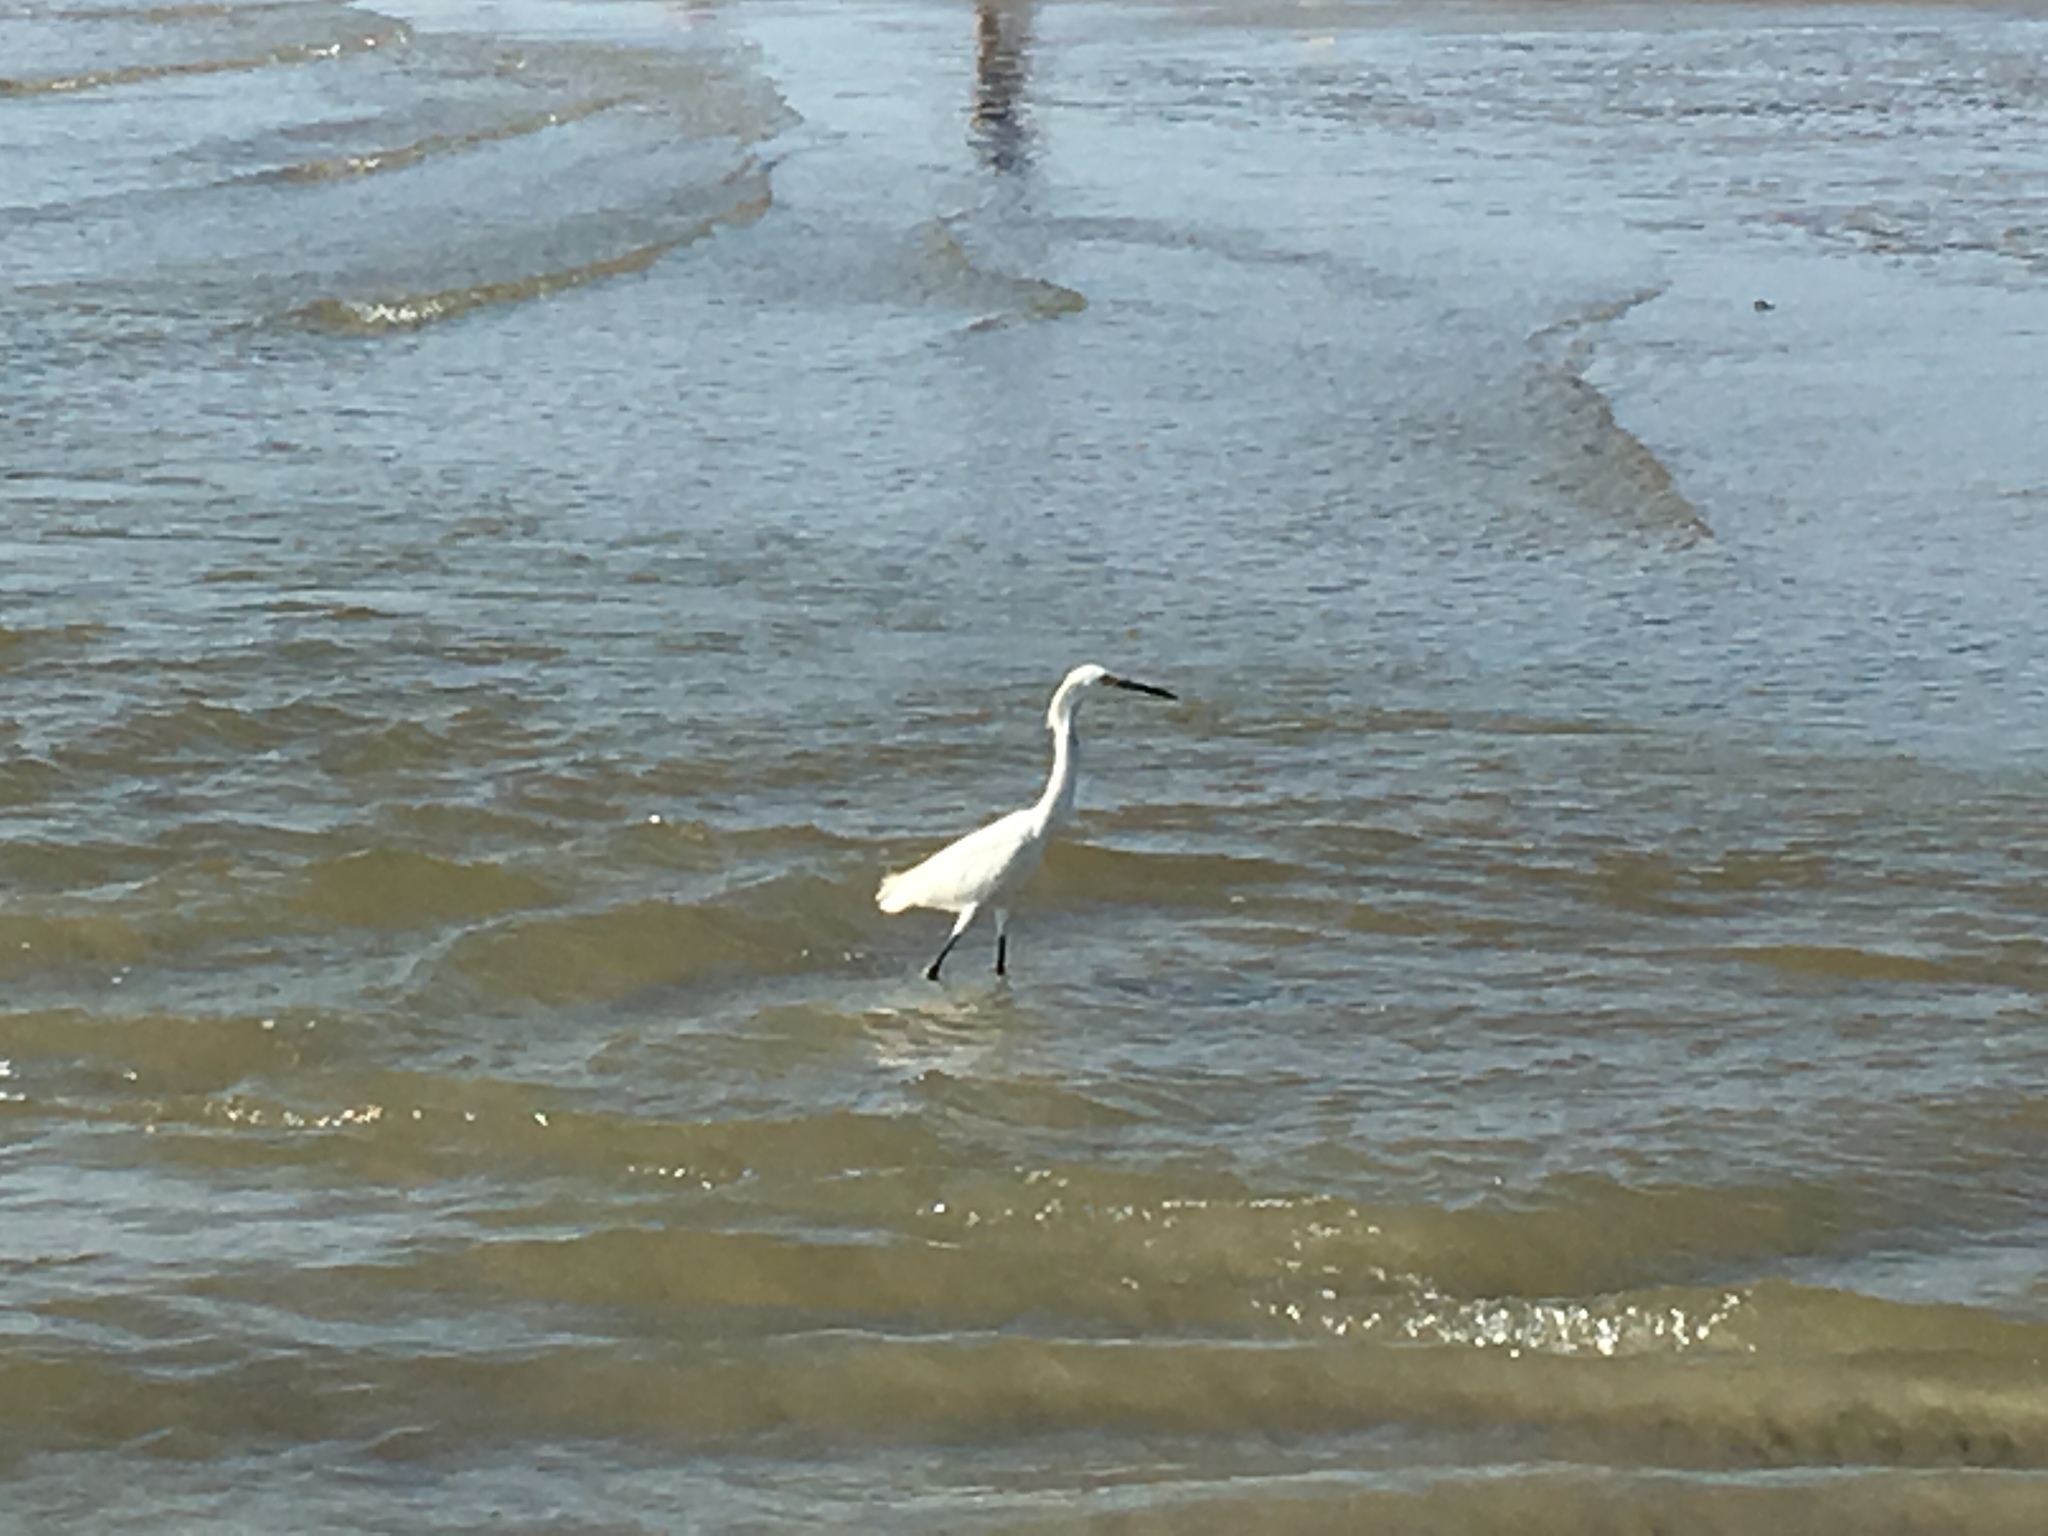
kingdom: Animalia
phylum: Chordata
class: Aves
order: Pelecaniformes
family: Ardeidae
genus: Egretta
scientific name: Egretta thula
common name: Snowy egret
